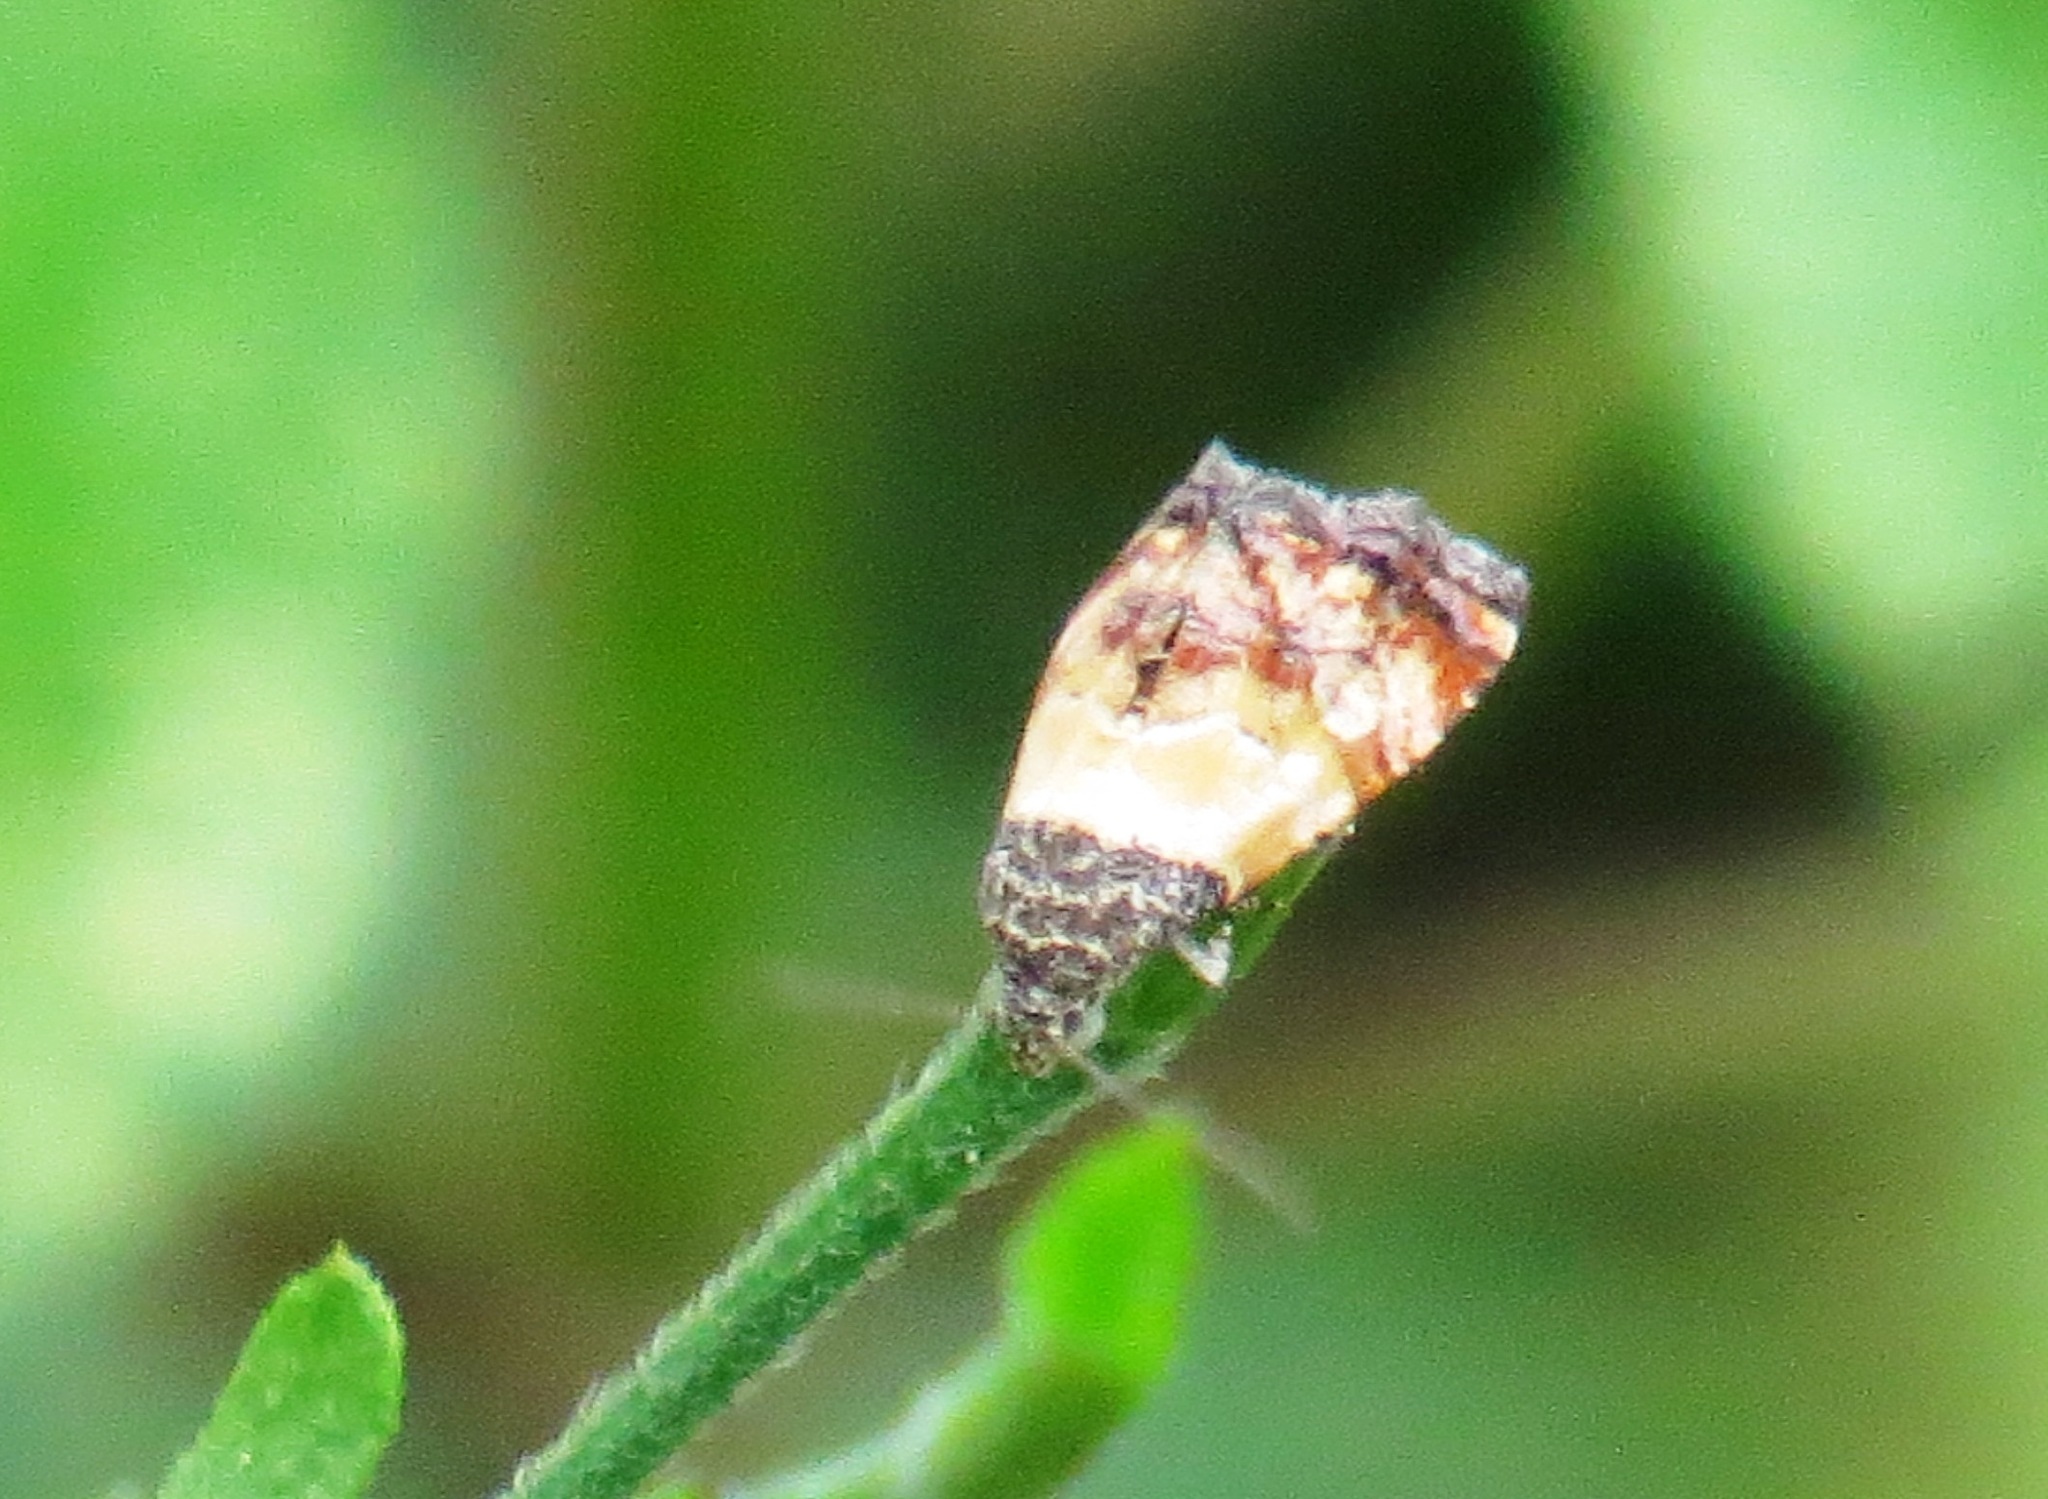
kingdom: Animalia
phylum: Arthropoda
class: Insecta
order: Lepidoptera
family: Noctuidae
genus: Tripudia
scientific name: Tripudia flavofasciata
